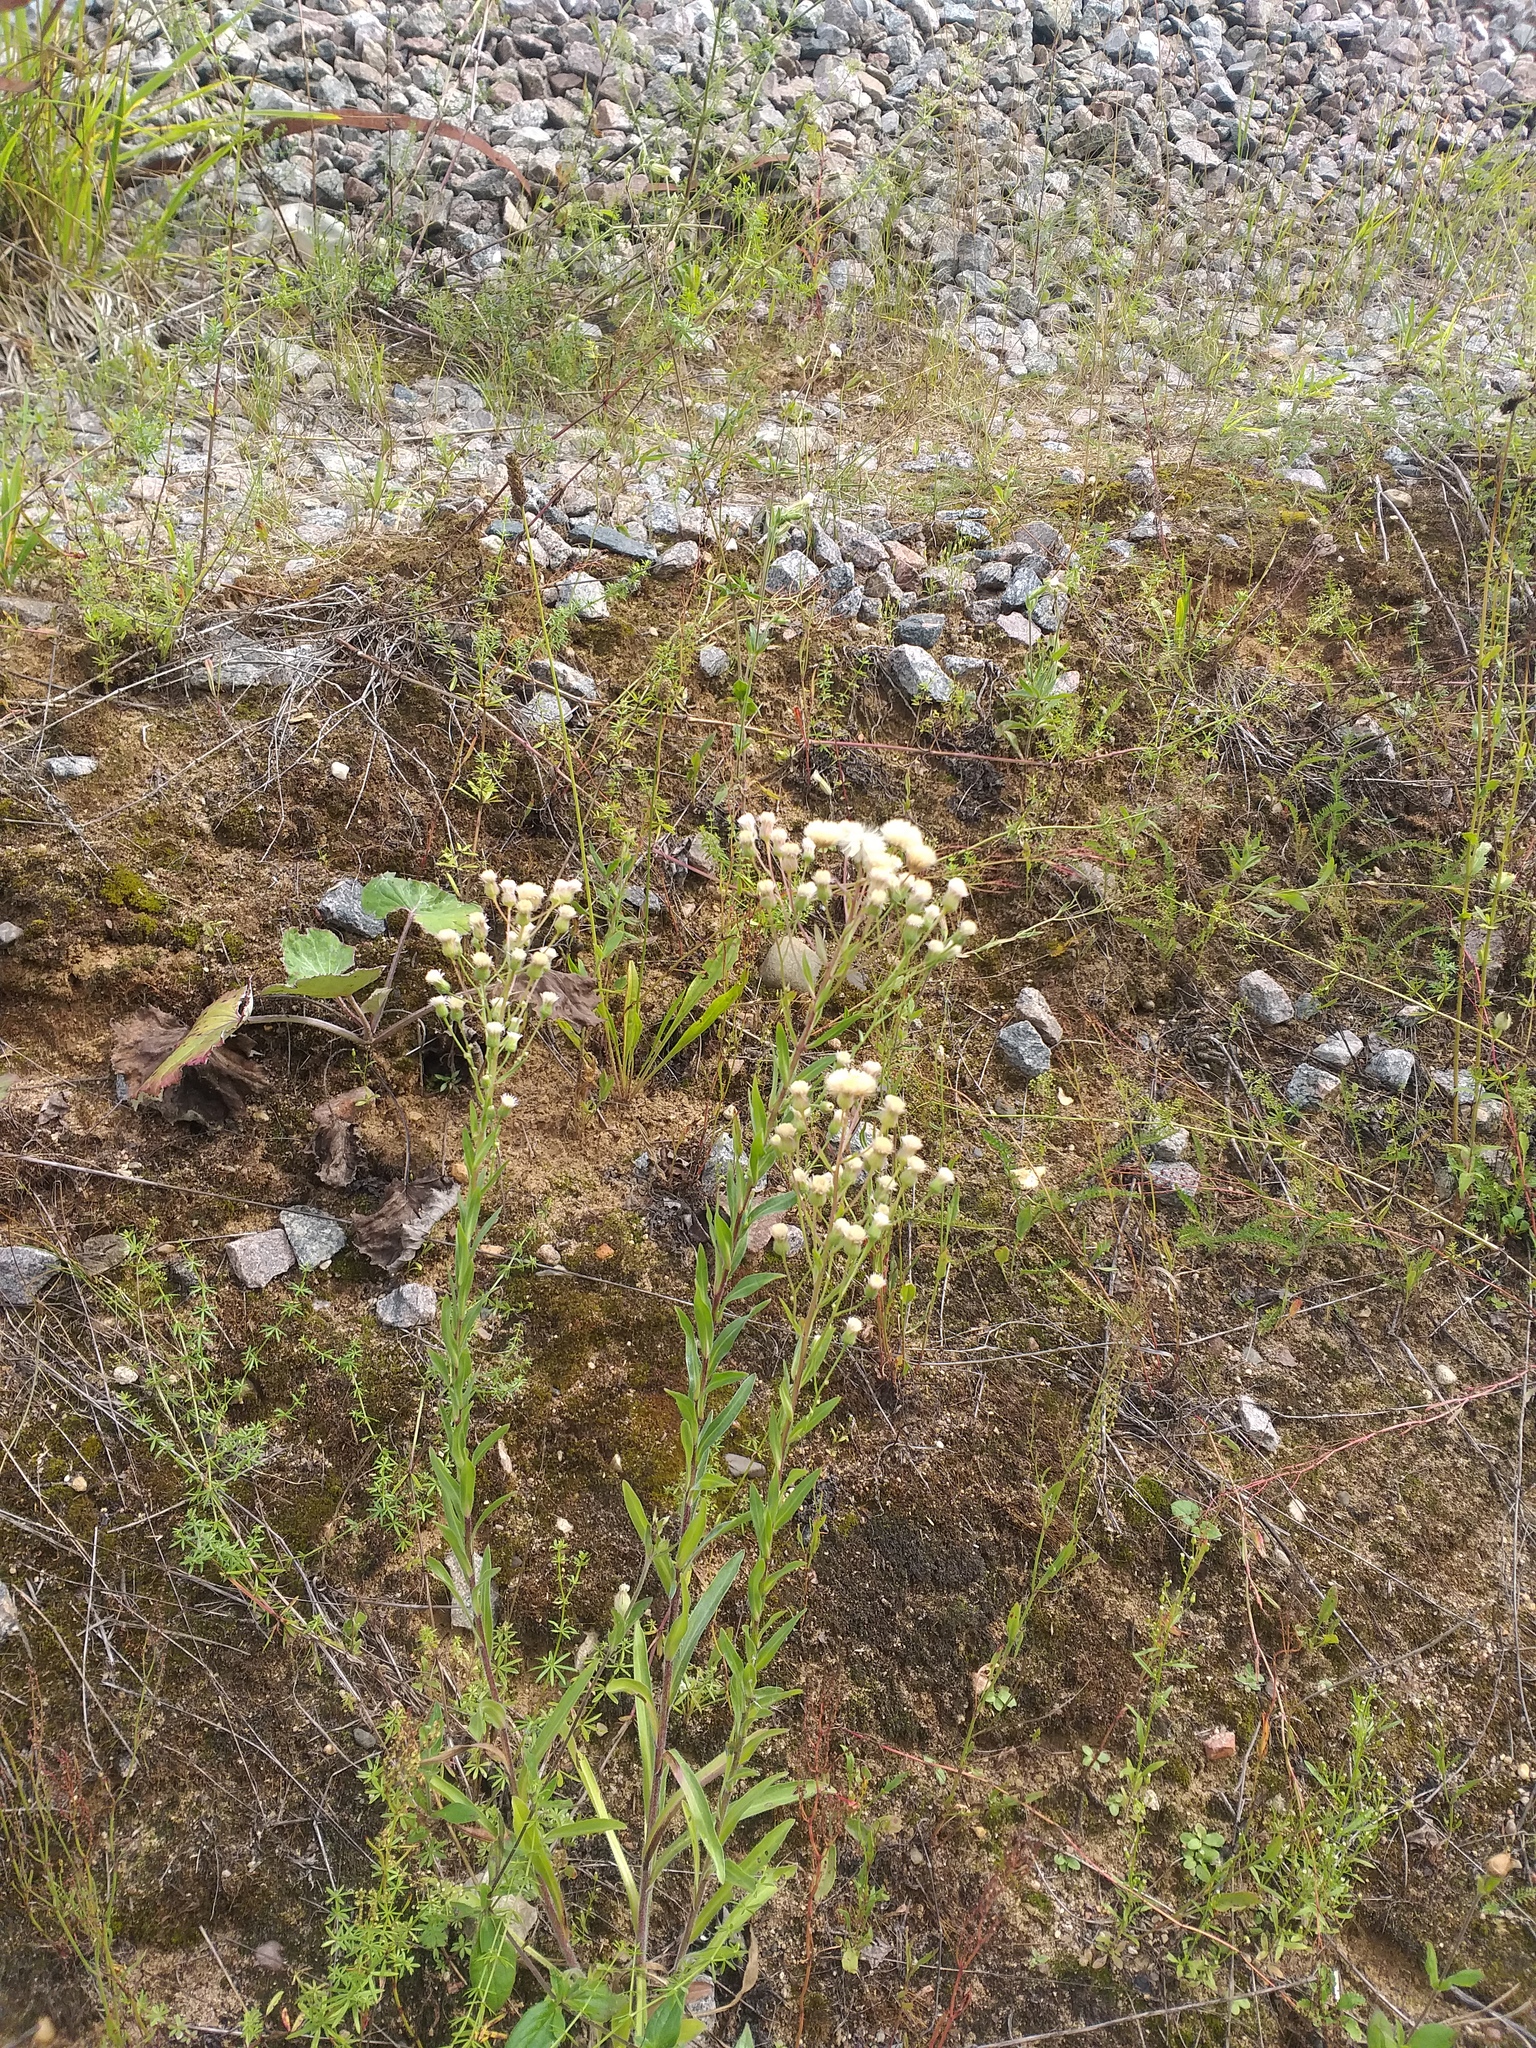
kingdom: Plantae
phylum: Tracheophyta
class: Magnoliopsida
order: Asterales
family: Asteraceae
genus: Erigeron
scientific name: Erigeron acris
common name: Blue fleabane
